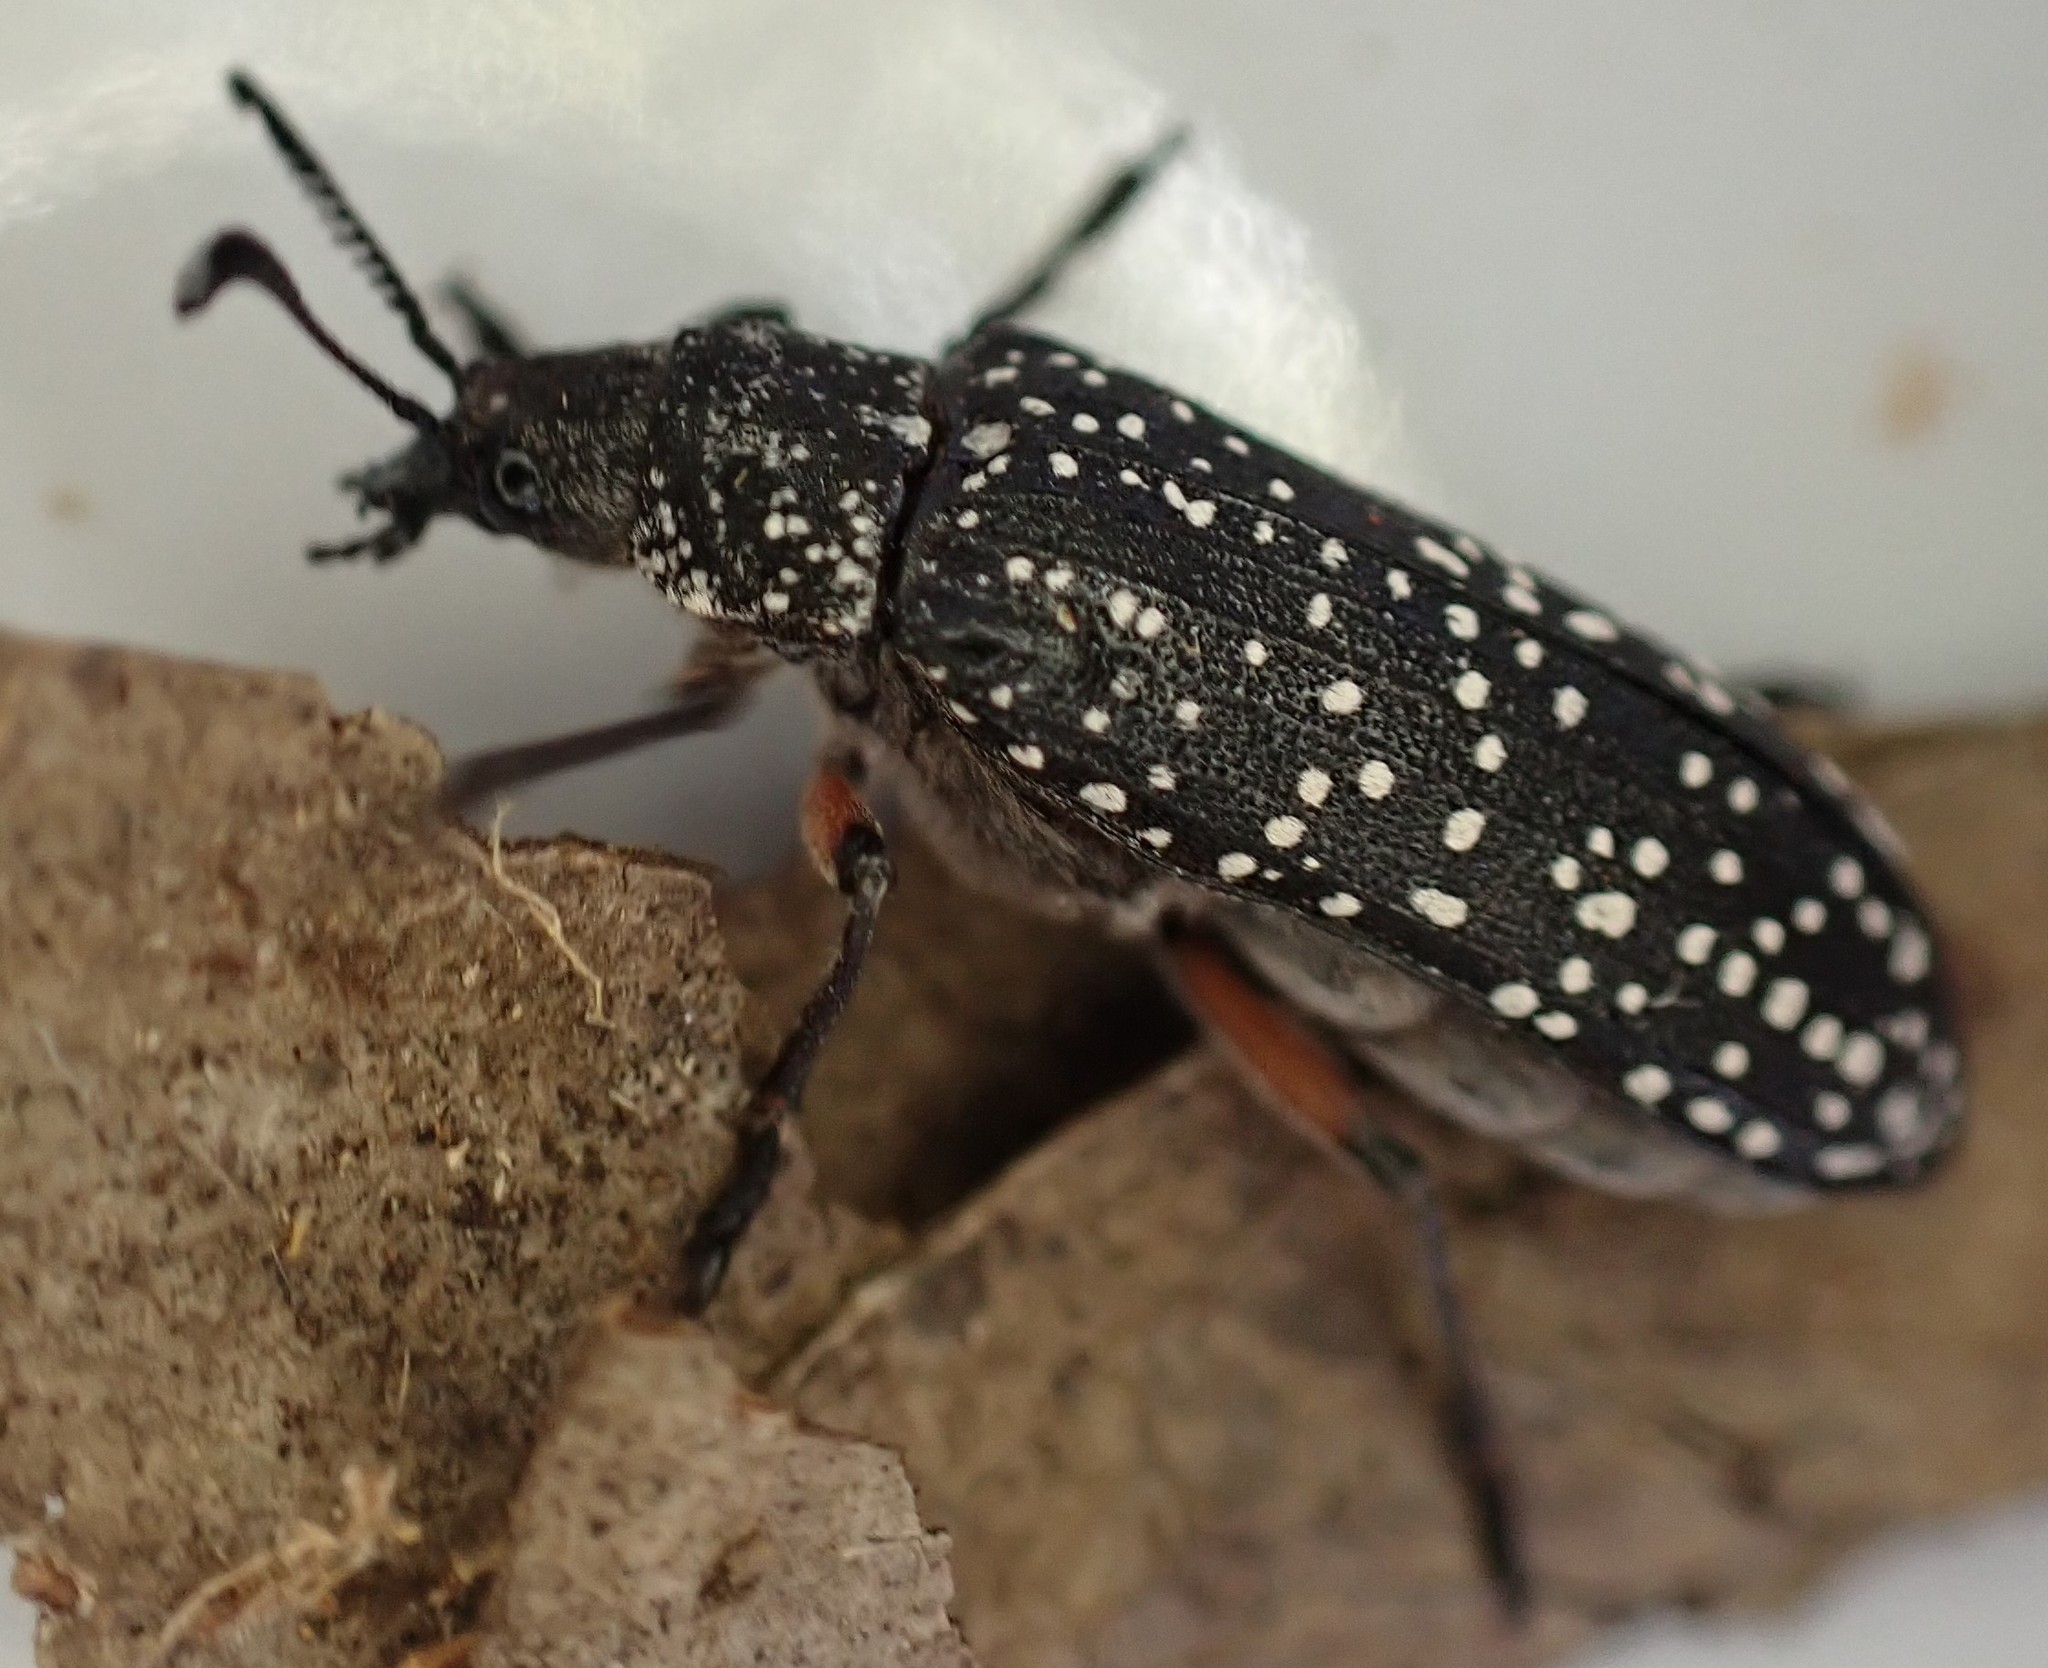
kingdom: Animalia
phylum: Arthropoda
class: Insecta
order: Coleoptera
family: Rhipiceridae
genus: Rhipicera
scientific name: Rhipicera femorata
